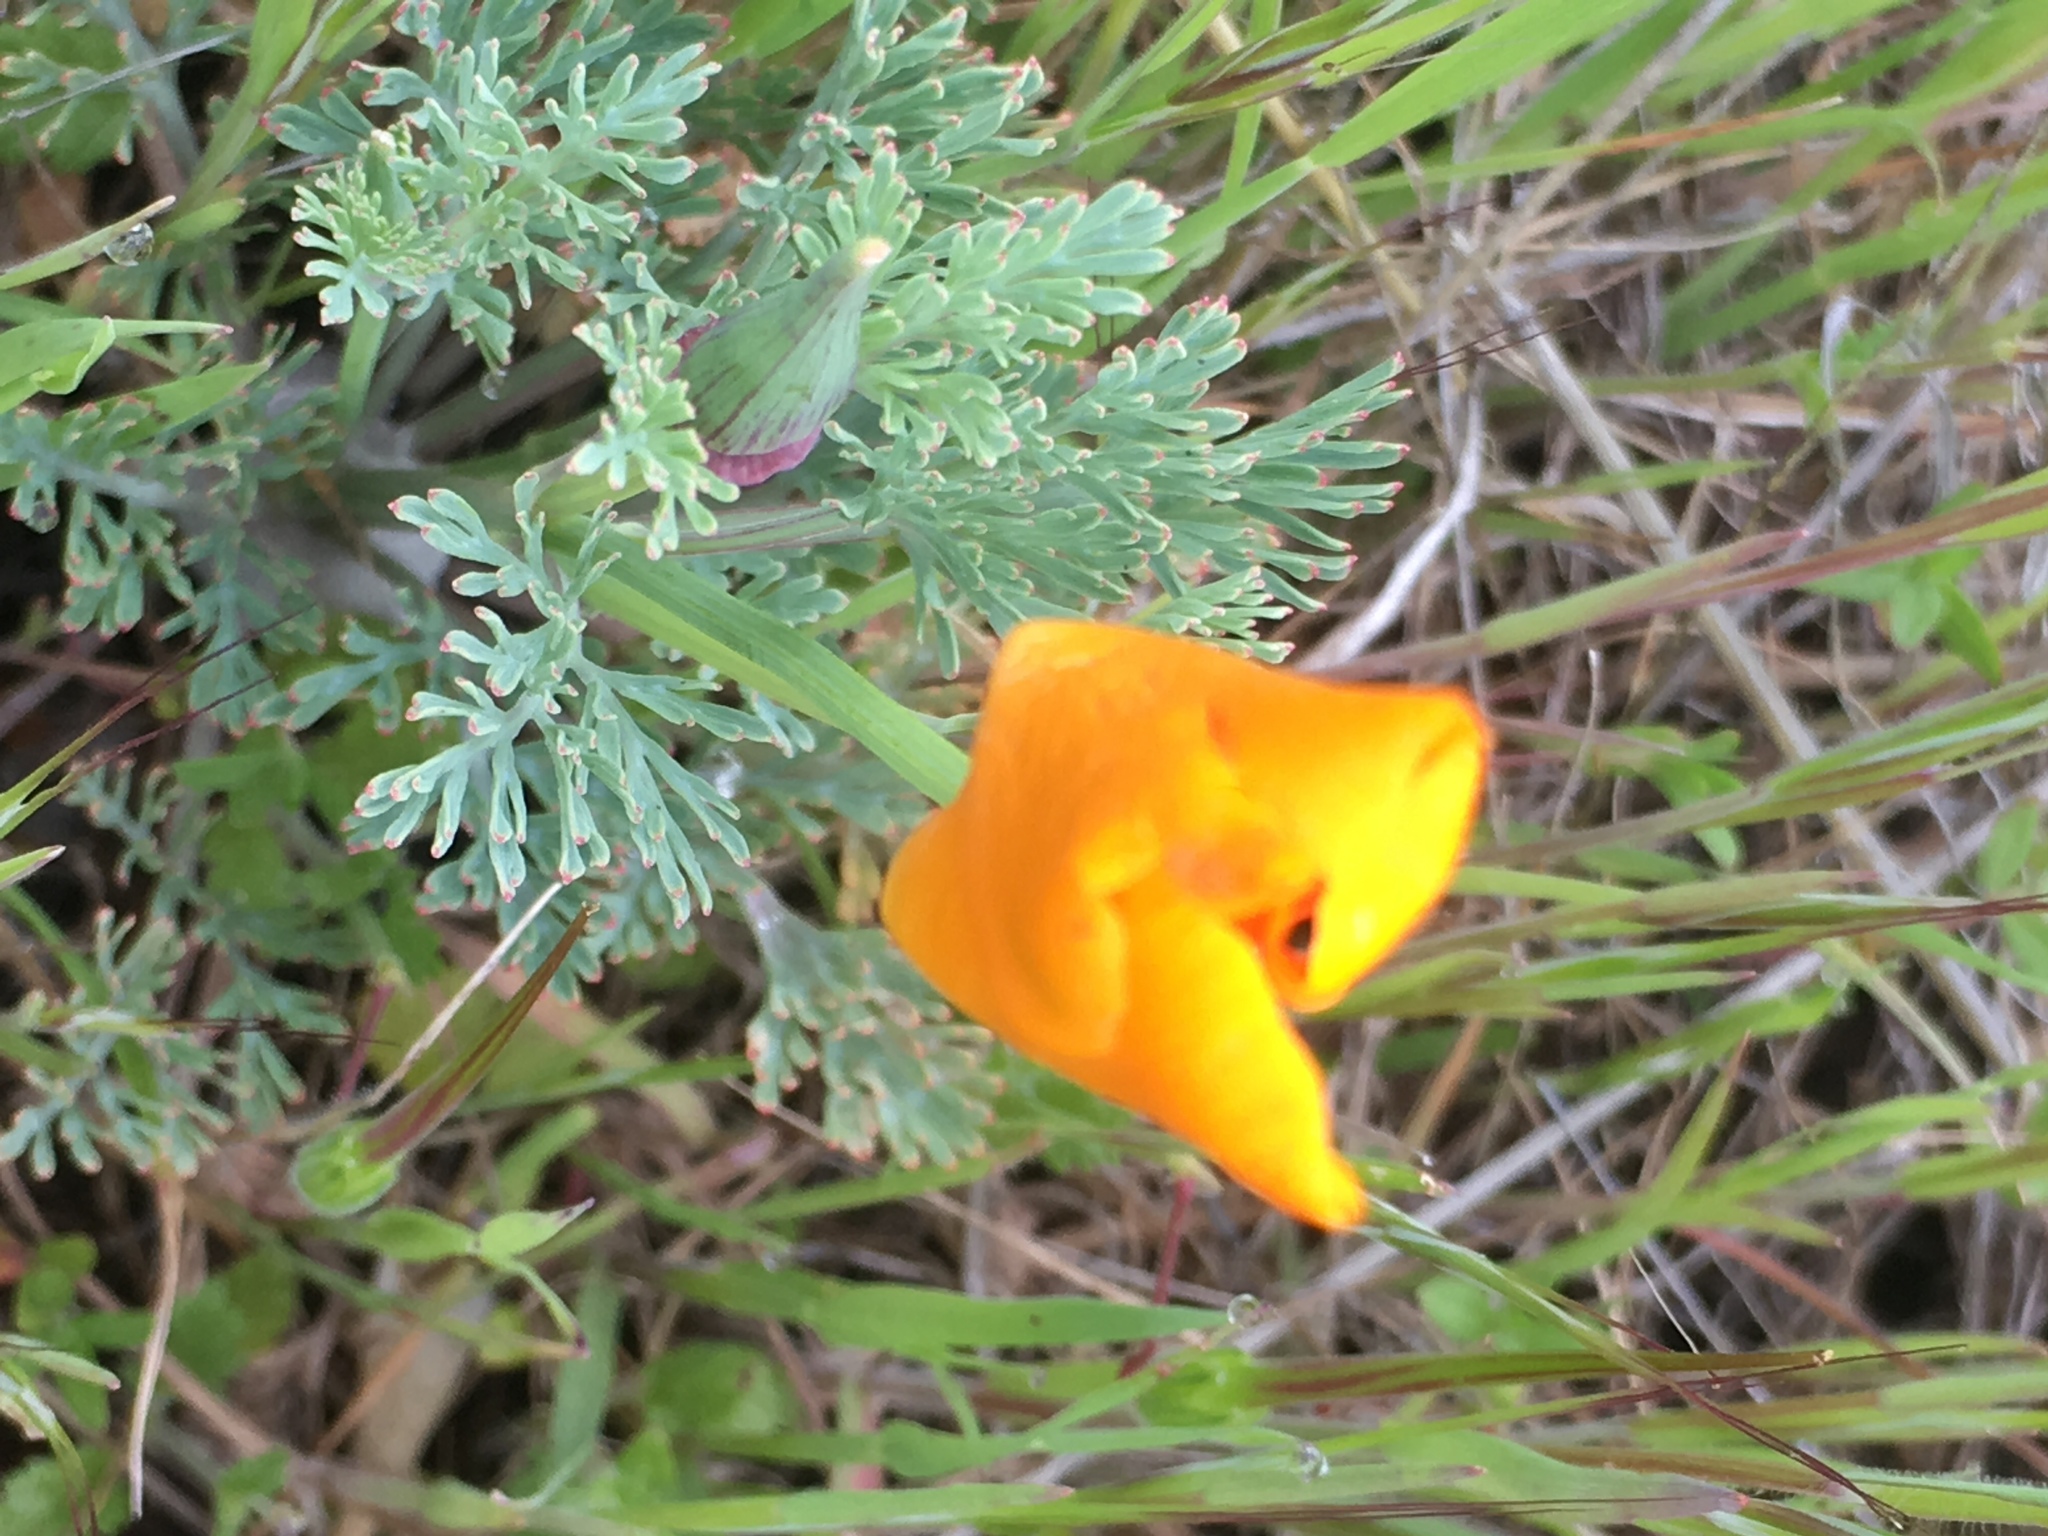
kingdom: Plantae
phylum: Tracheophyta
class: Magnoliopsida
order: Ranunculales
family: Papaveraceae
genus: Eschscholzia
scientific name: Eschscholzia californica
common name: California poppy
